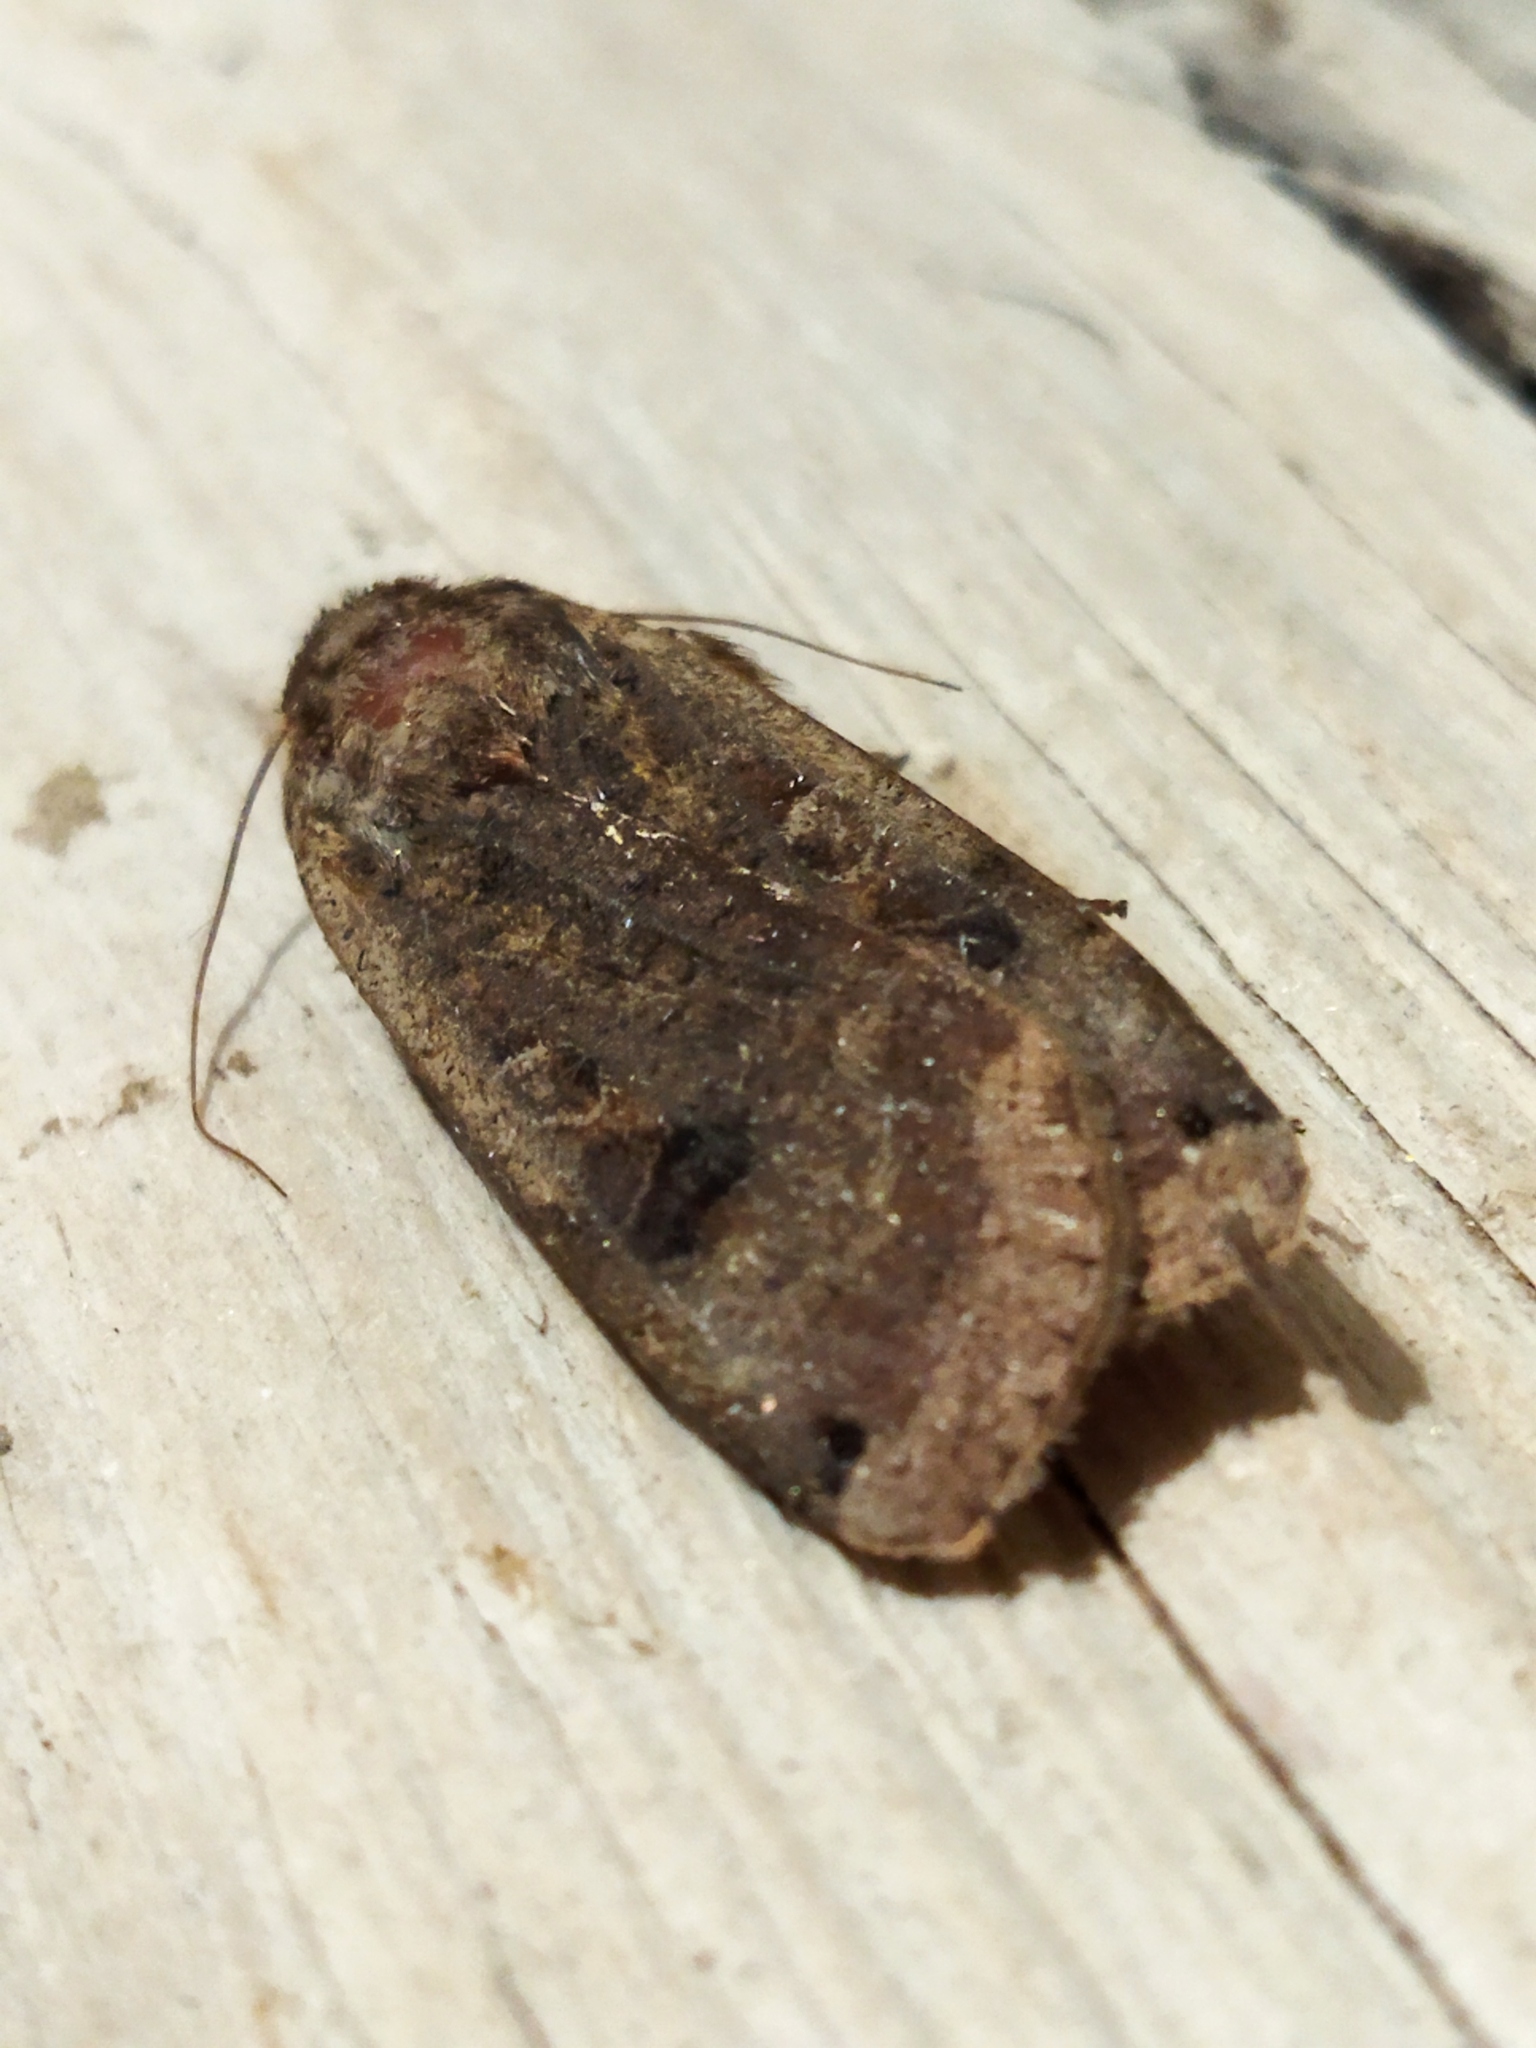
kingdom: Animalia
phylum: Arthropoda
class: Insecta
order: Lepidoptera
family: Noctuidae
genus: Noctua
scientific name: Noctua pronuba
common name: Large yellow underwing
